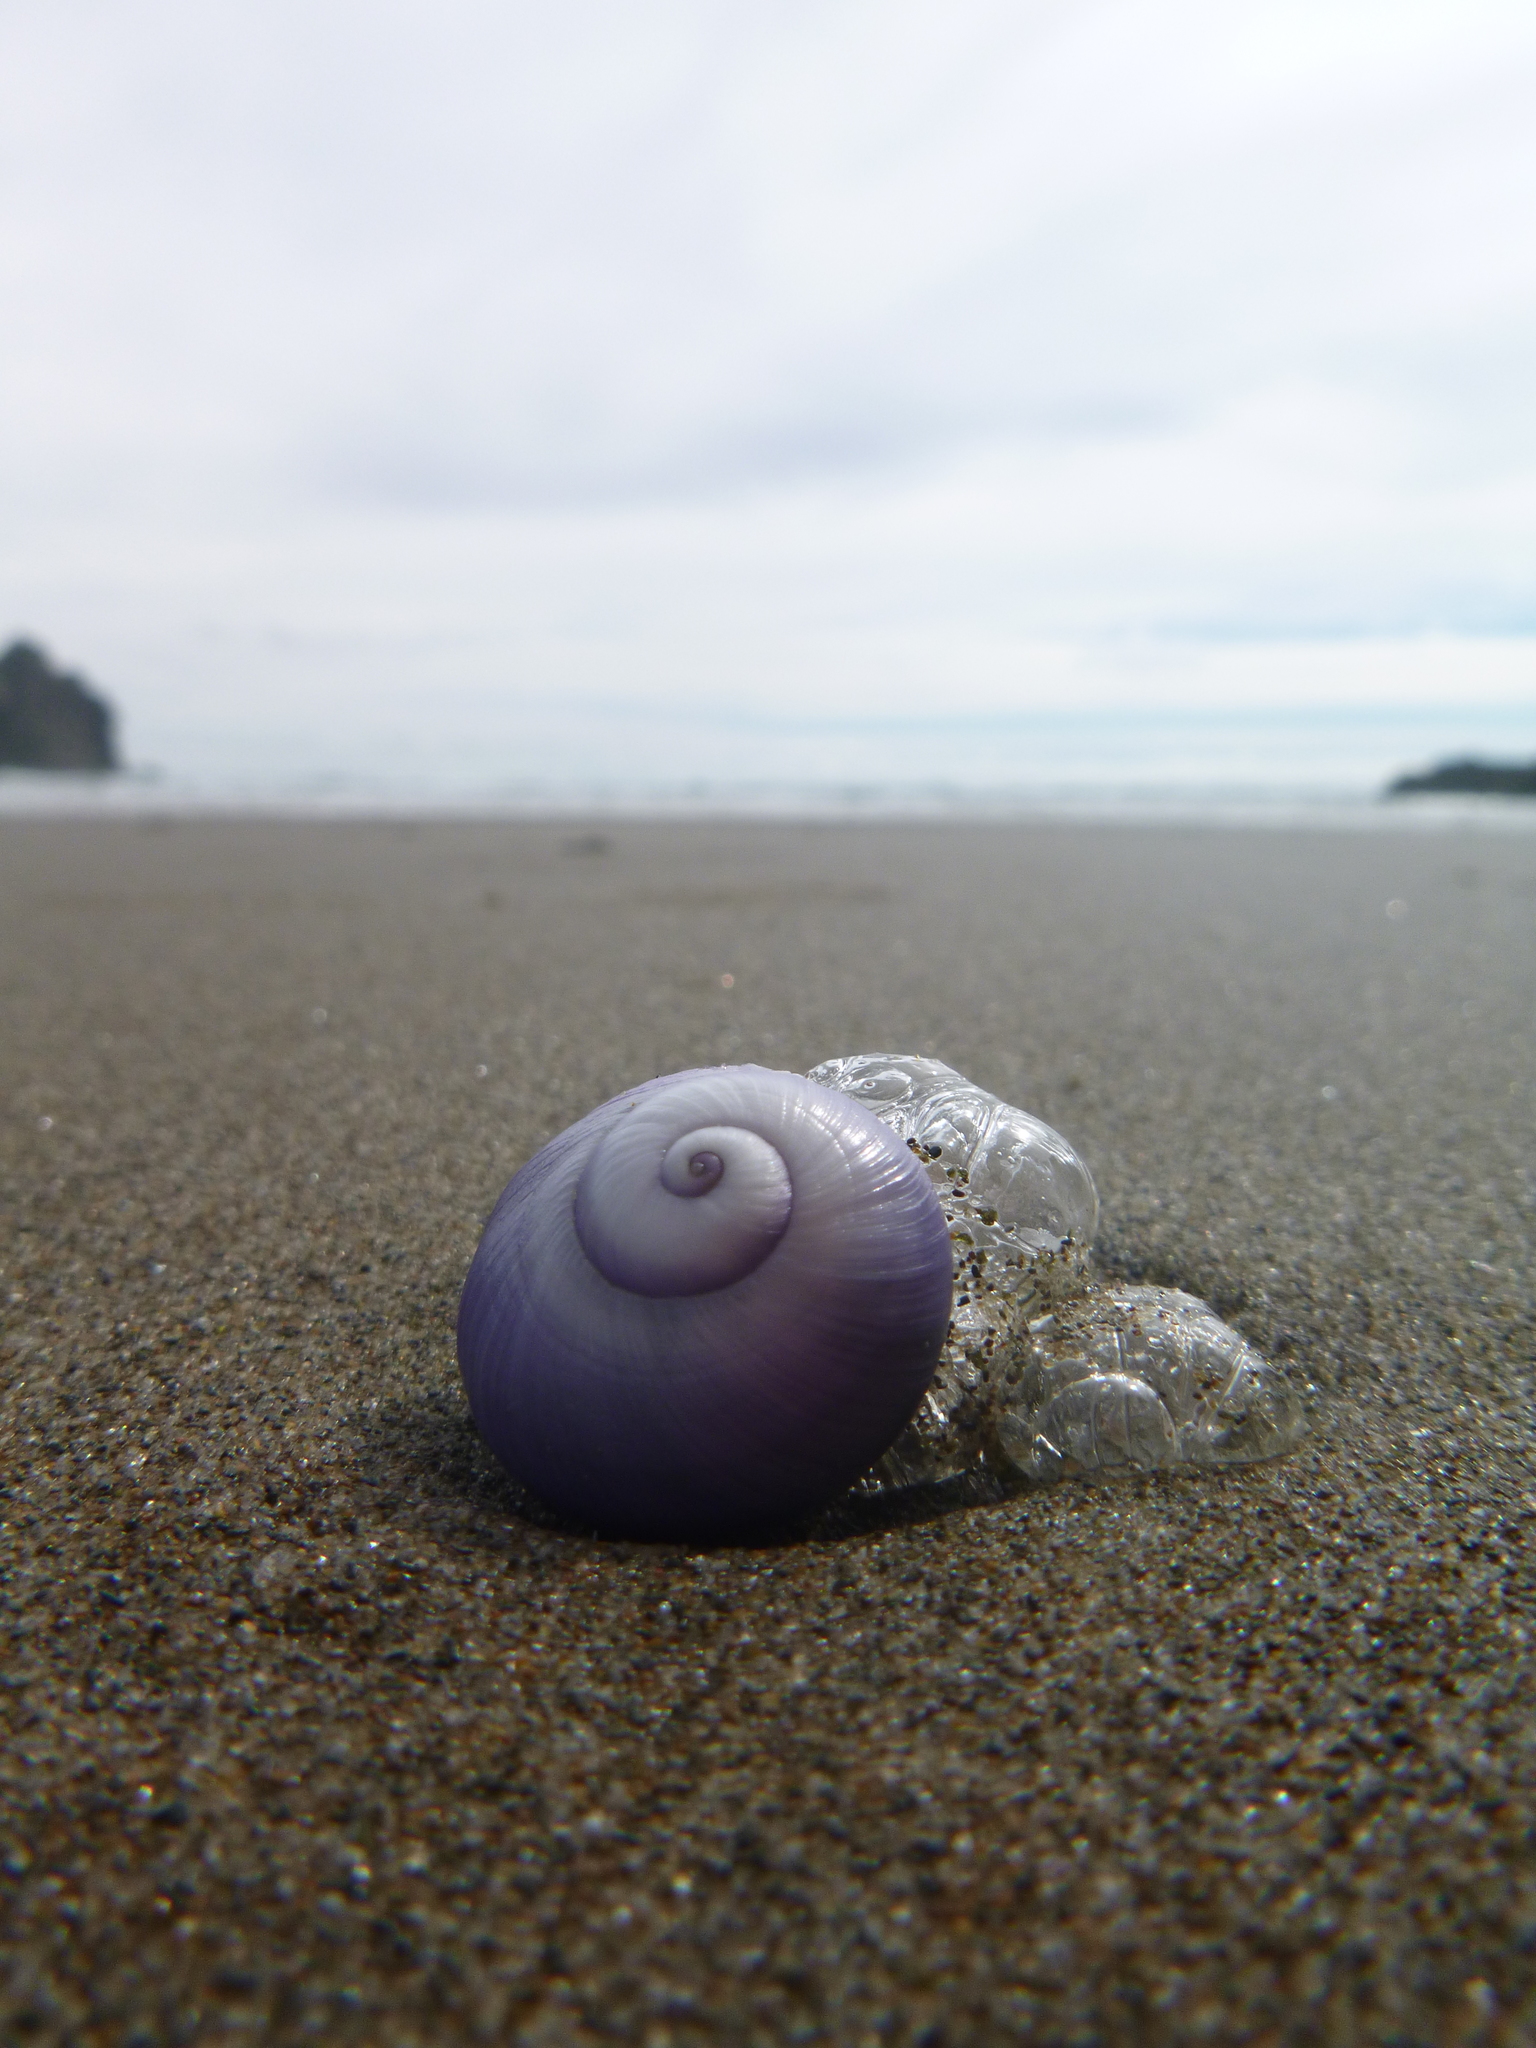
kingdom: Animalia
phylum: Mollusca
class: Gastropoda
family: Epitoniidae
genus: Janthina
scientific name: Janthina janthina
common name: Common janthina
